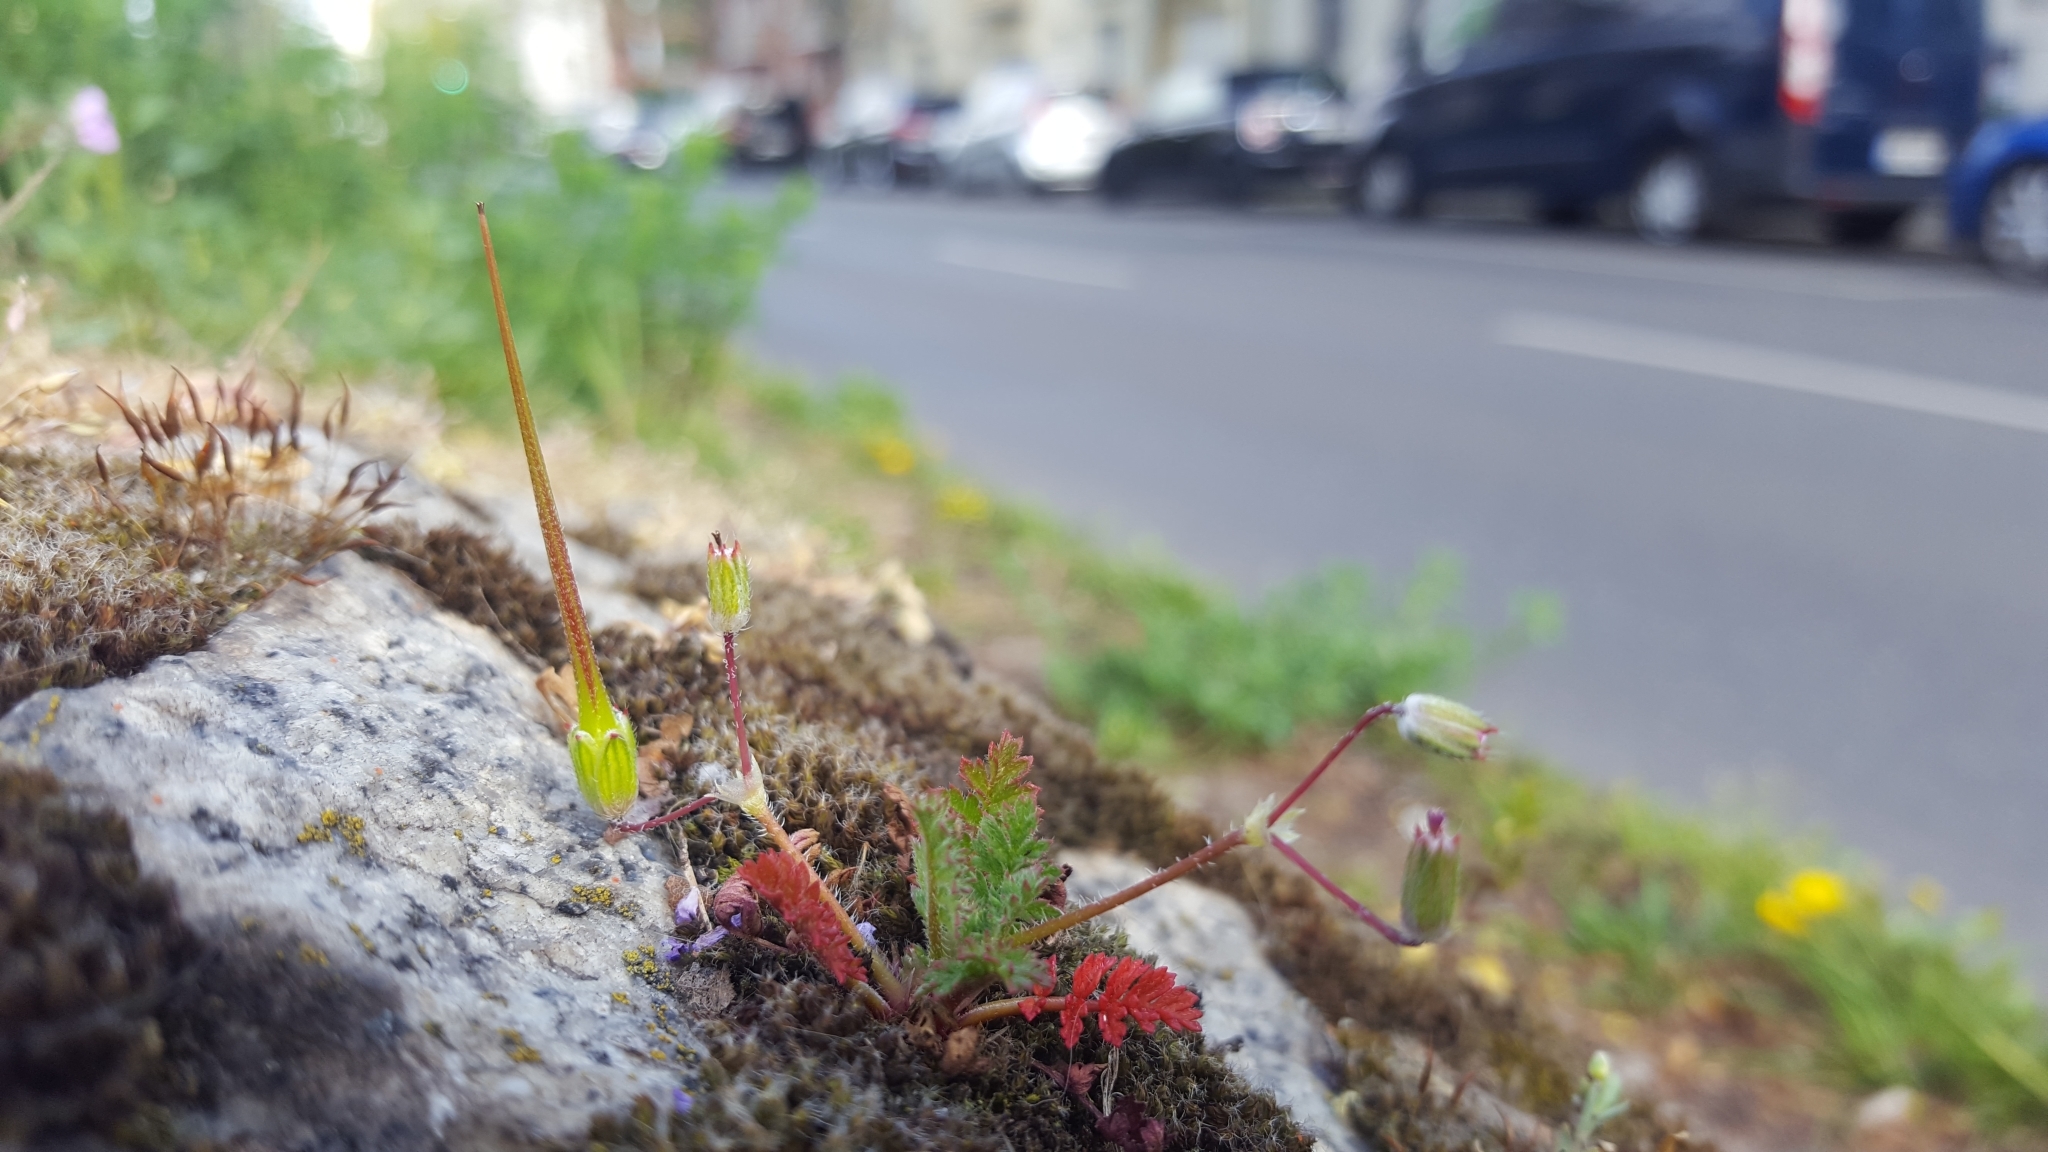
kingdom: Plantae
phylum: Tracheophyta
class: Magnoliopsida
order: Geraniales
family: Geraniaceae
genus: Erodium
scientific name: Erodium cicutarium
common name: Common stork's-bill
